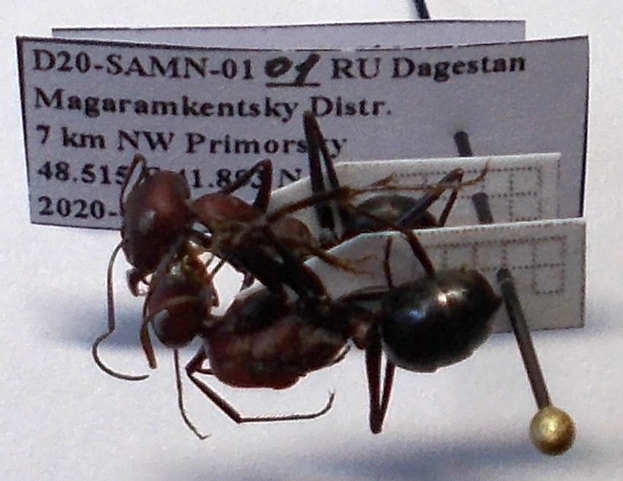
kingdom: Animalia
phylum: Arthropoda
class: Insecta
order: Hymenoptera
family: Formicidae
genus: Cataglyphis
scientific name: Cataglyphis nodus
